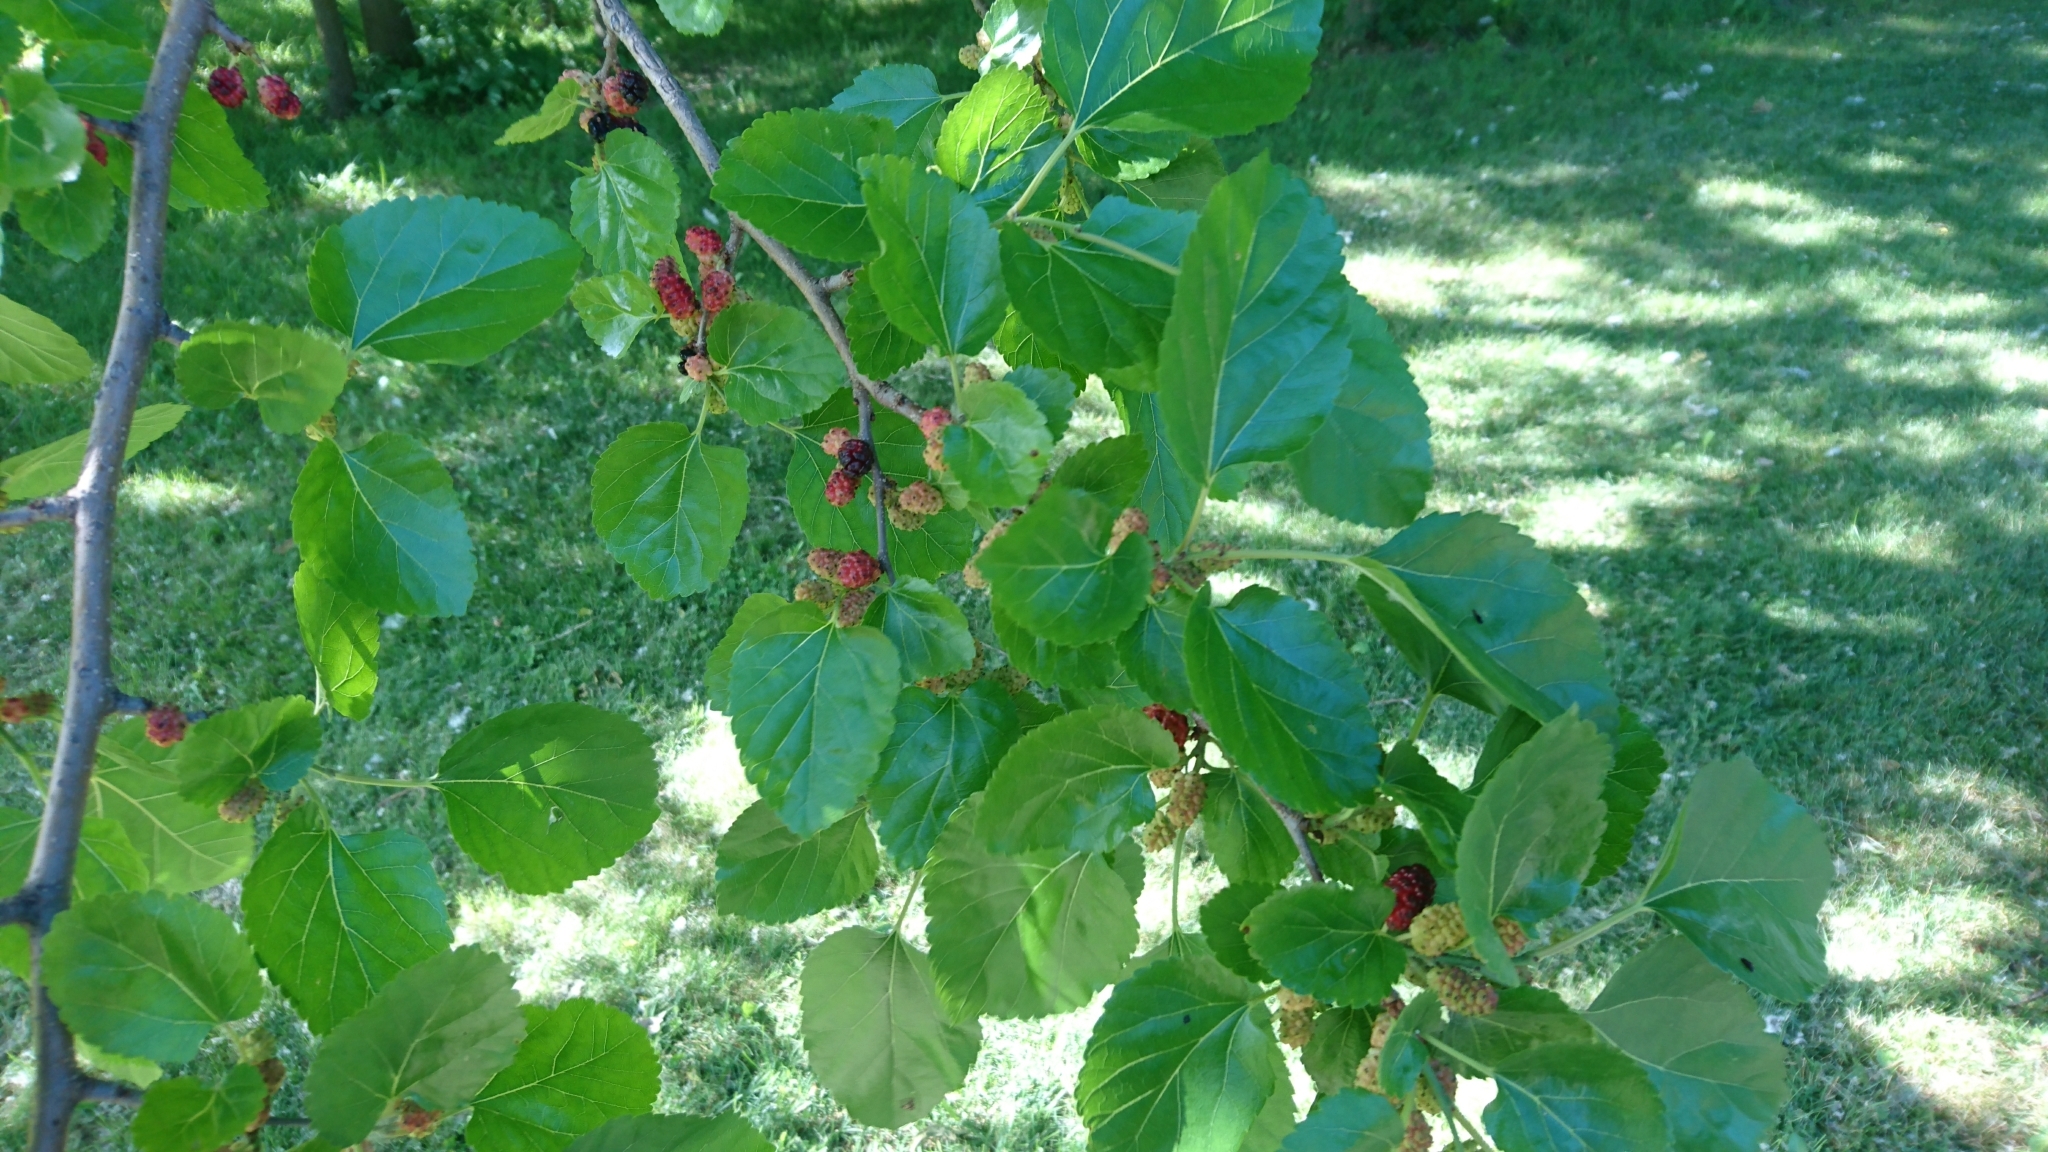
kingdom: Plantae
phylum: Tracheophyta
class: Magnoliopsida
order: Rosales
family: Moraceae
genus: Morus
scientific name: Morus alba
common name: White mulberry
